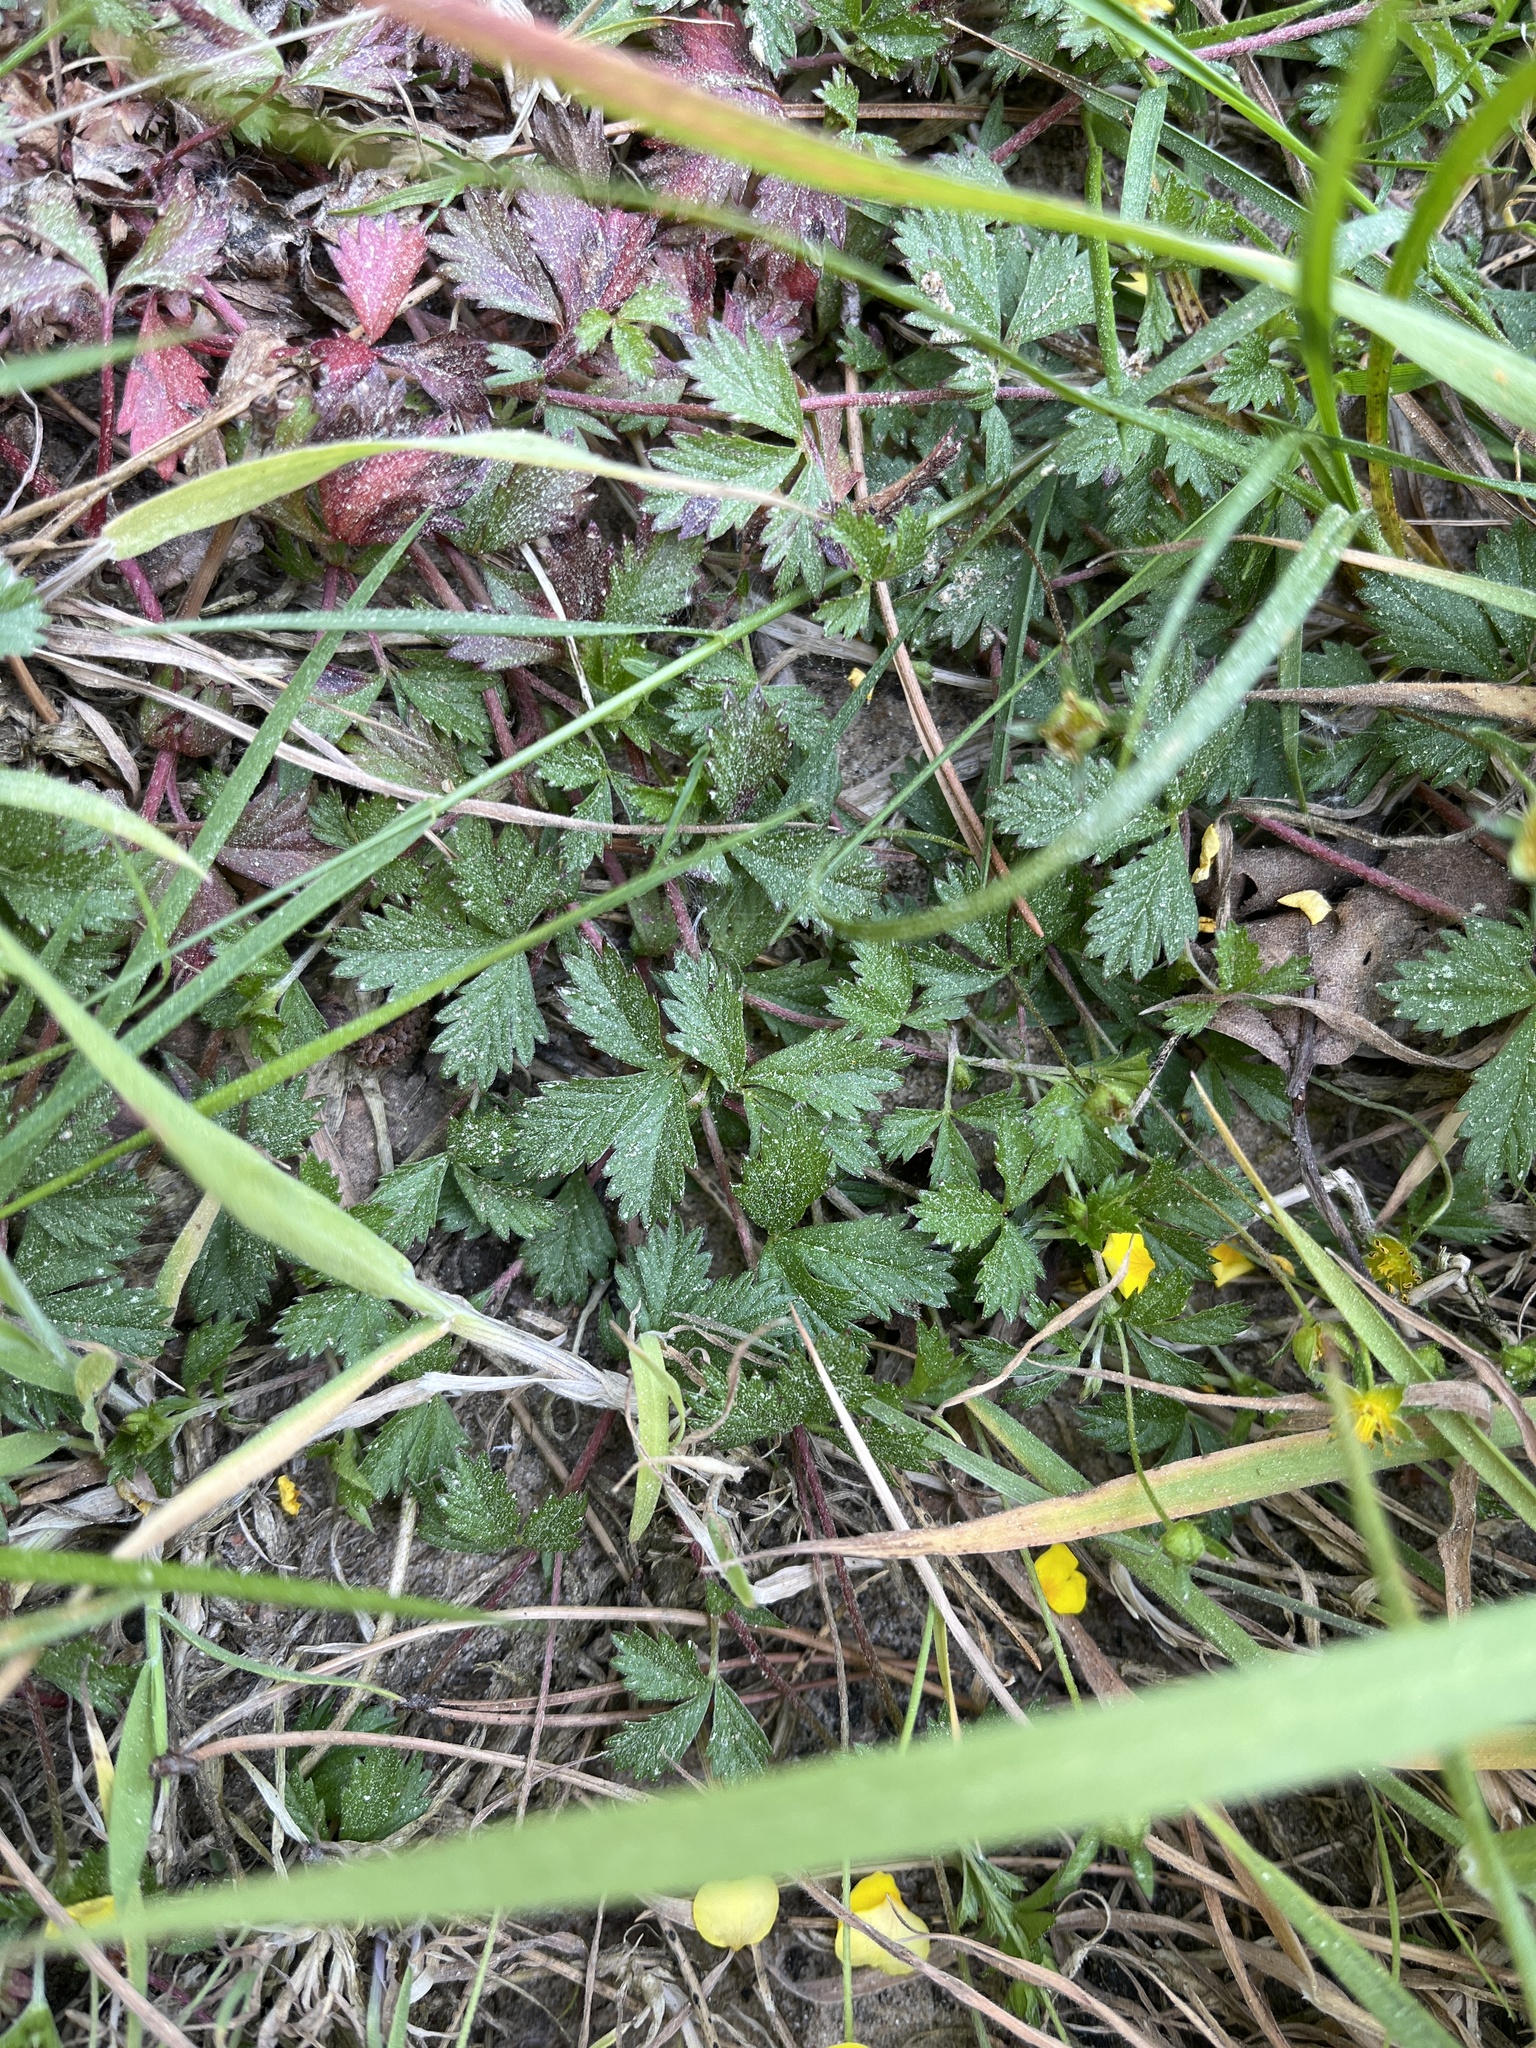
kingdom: Plantae
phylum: Tracheophyta
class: Magnoliopsida
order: Rosales
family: Rosaceae
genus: Potentilla
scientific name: Potentilla anglica
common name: Trailing tormentil
